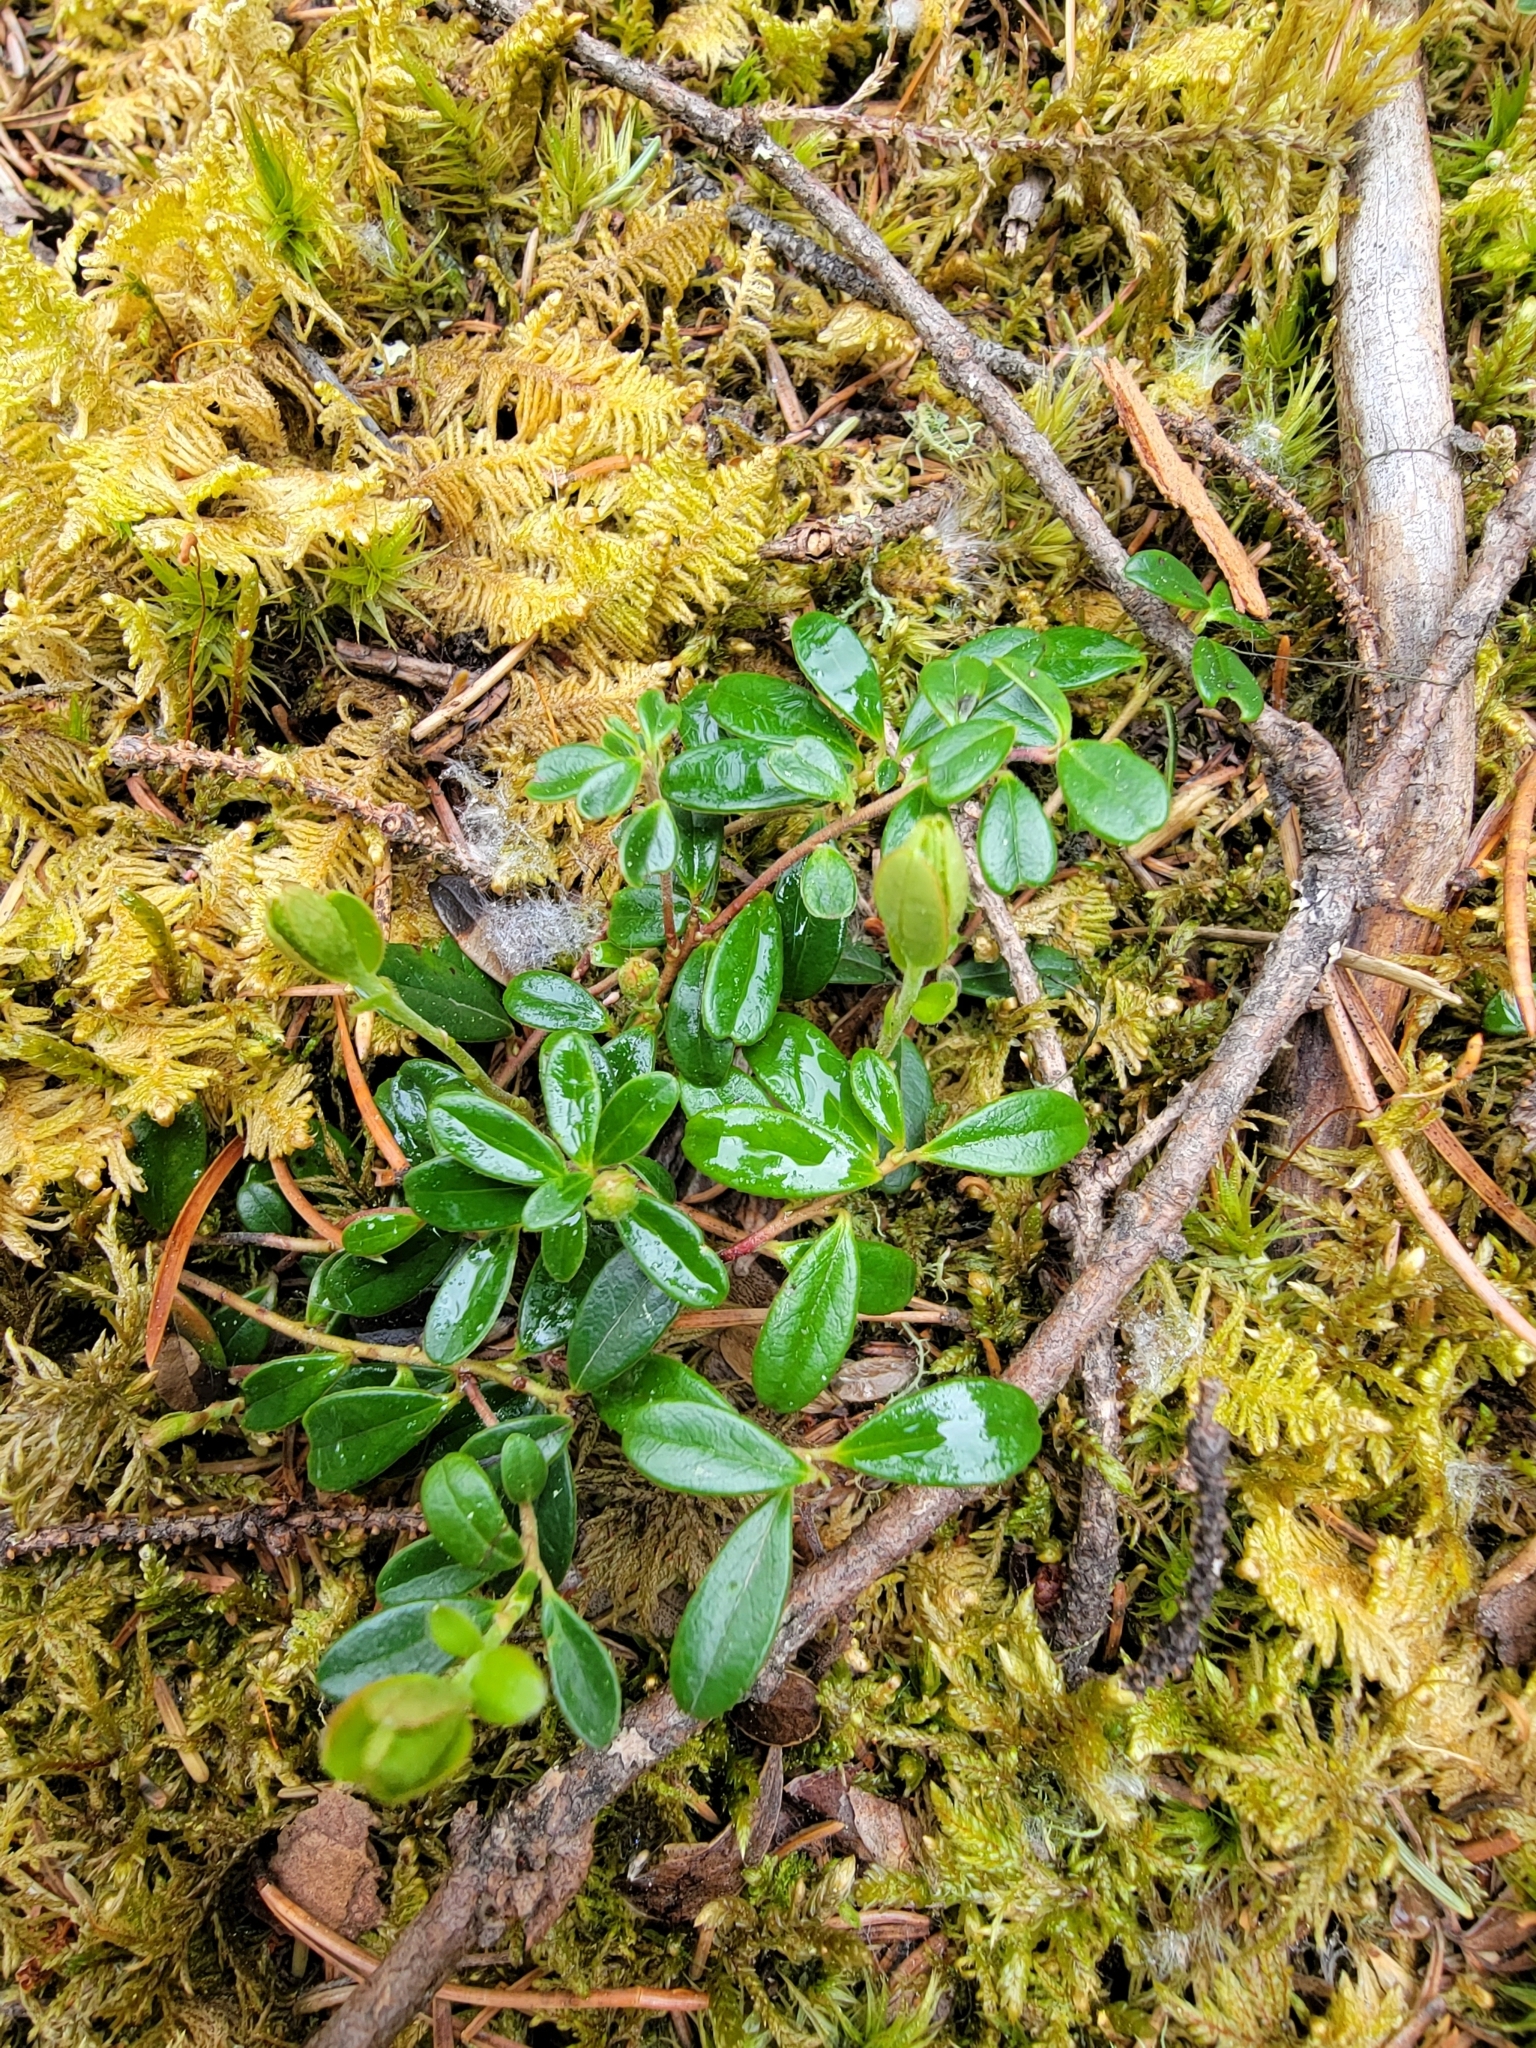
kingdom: Plantae
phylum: Tracheophyta
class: Magnoliopsida
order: Ericales
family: Ericaceae
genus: Arctostaphylos
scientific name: Arctostaphylos uva-ursi
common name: Bearberry
